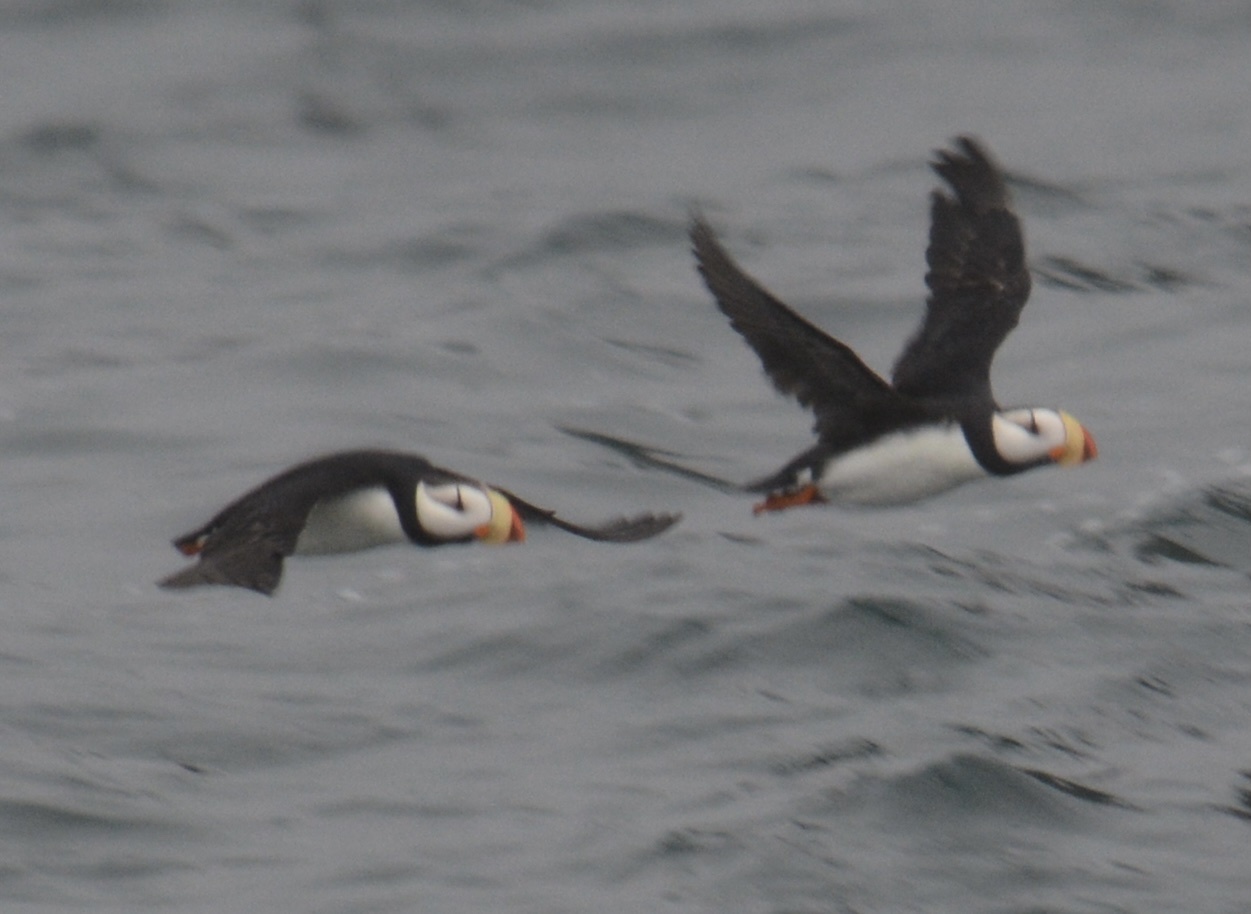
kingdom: Animalia
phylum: Chordata
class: Aves
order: Charadriiformes
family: Alcidae
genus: Fratercula
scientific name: Fratercula corniculata
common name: Horned puffin
